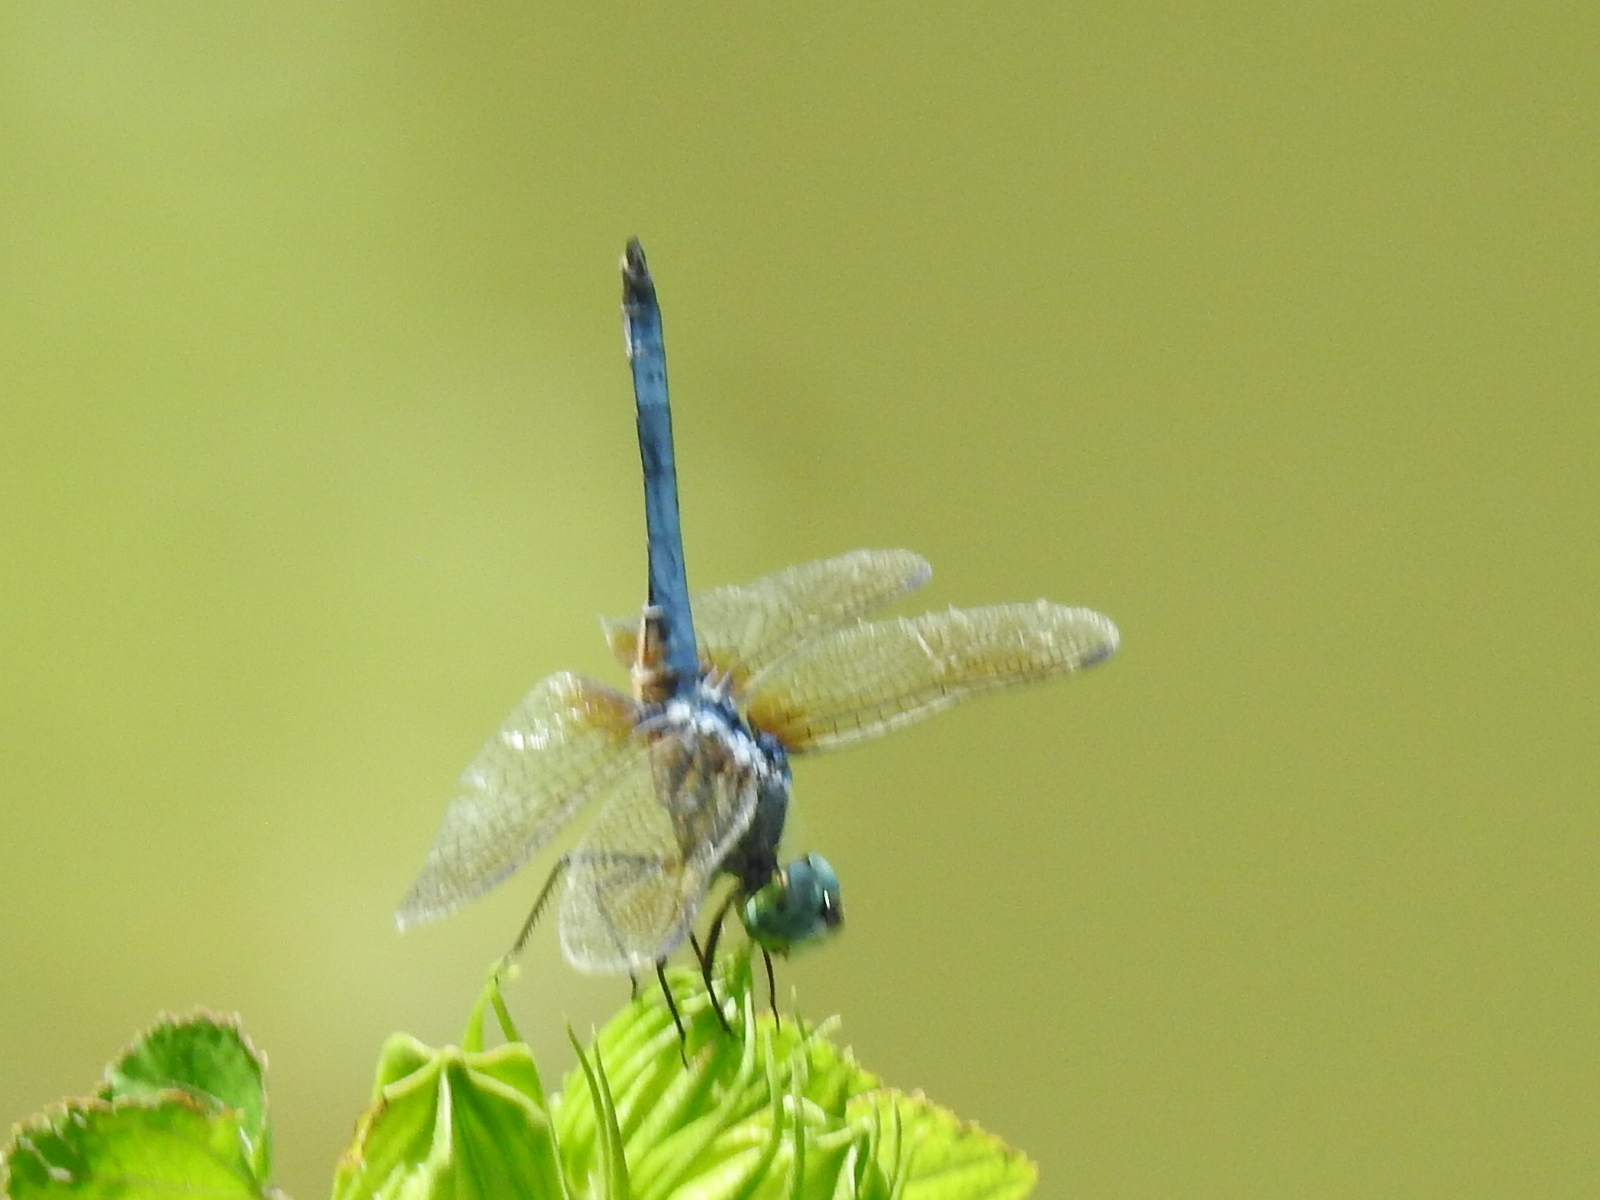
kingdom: Animalia
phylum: Arthropoda
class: Insecta
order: Odonata
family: Libellulidae
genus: Pachydiplax
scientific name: Pachydiplax longipennis
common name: Blue dasher
